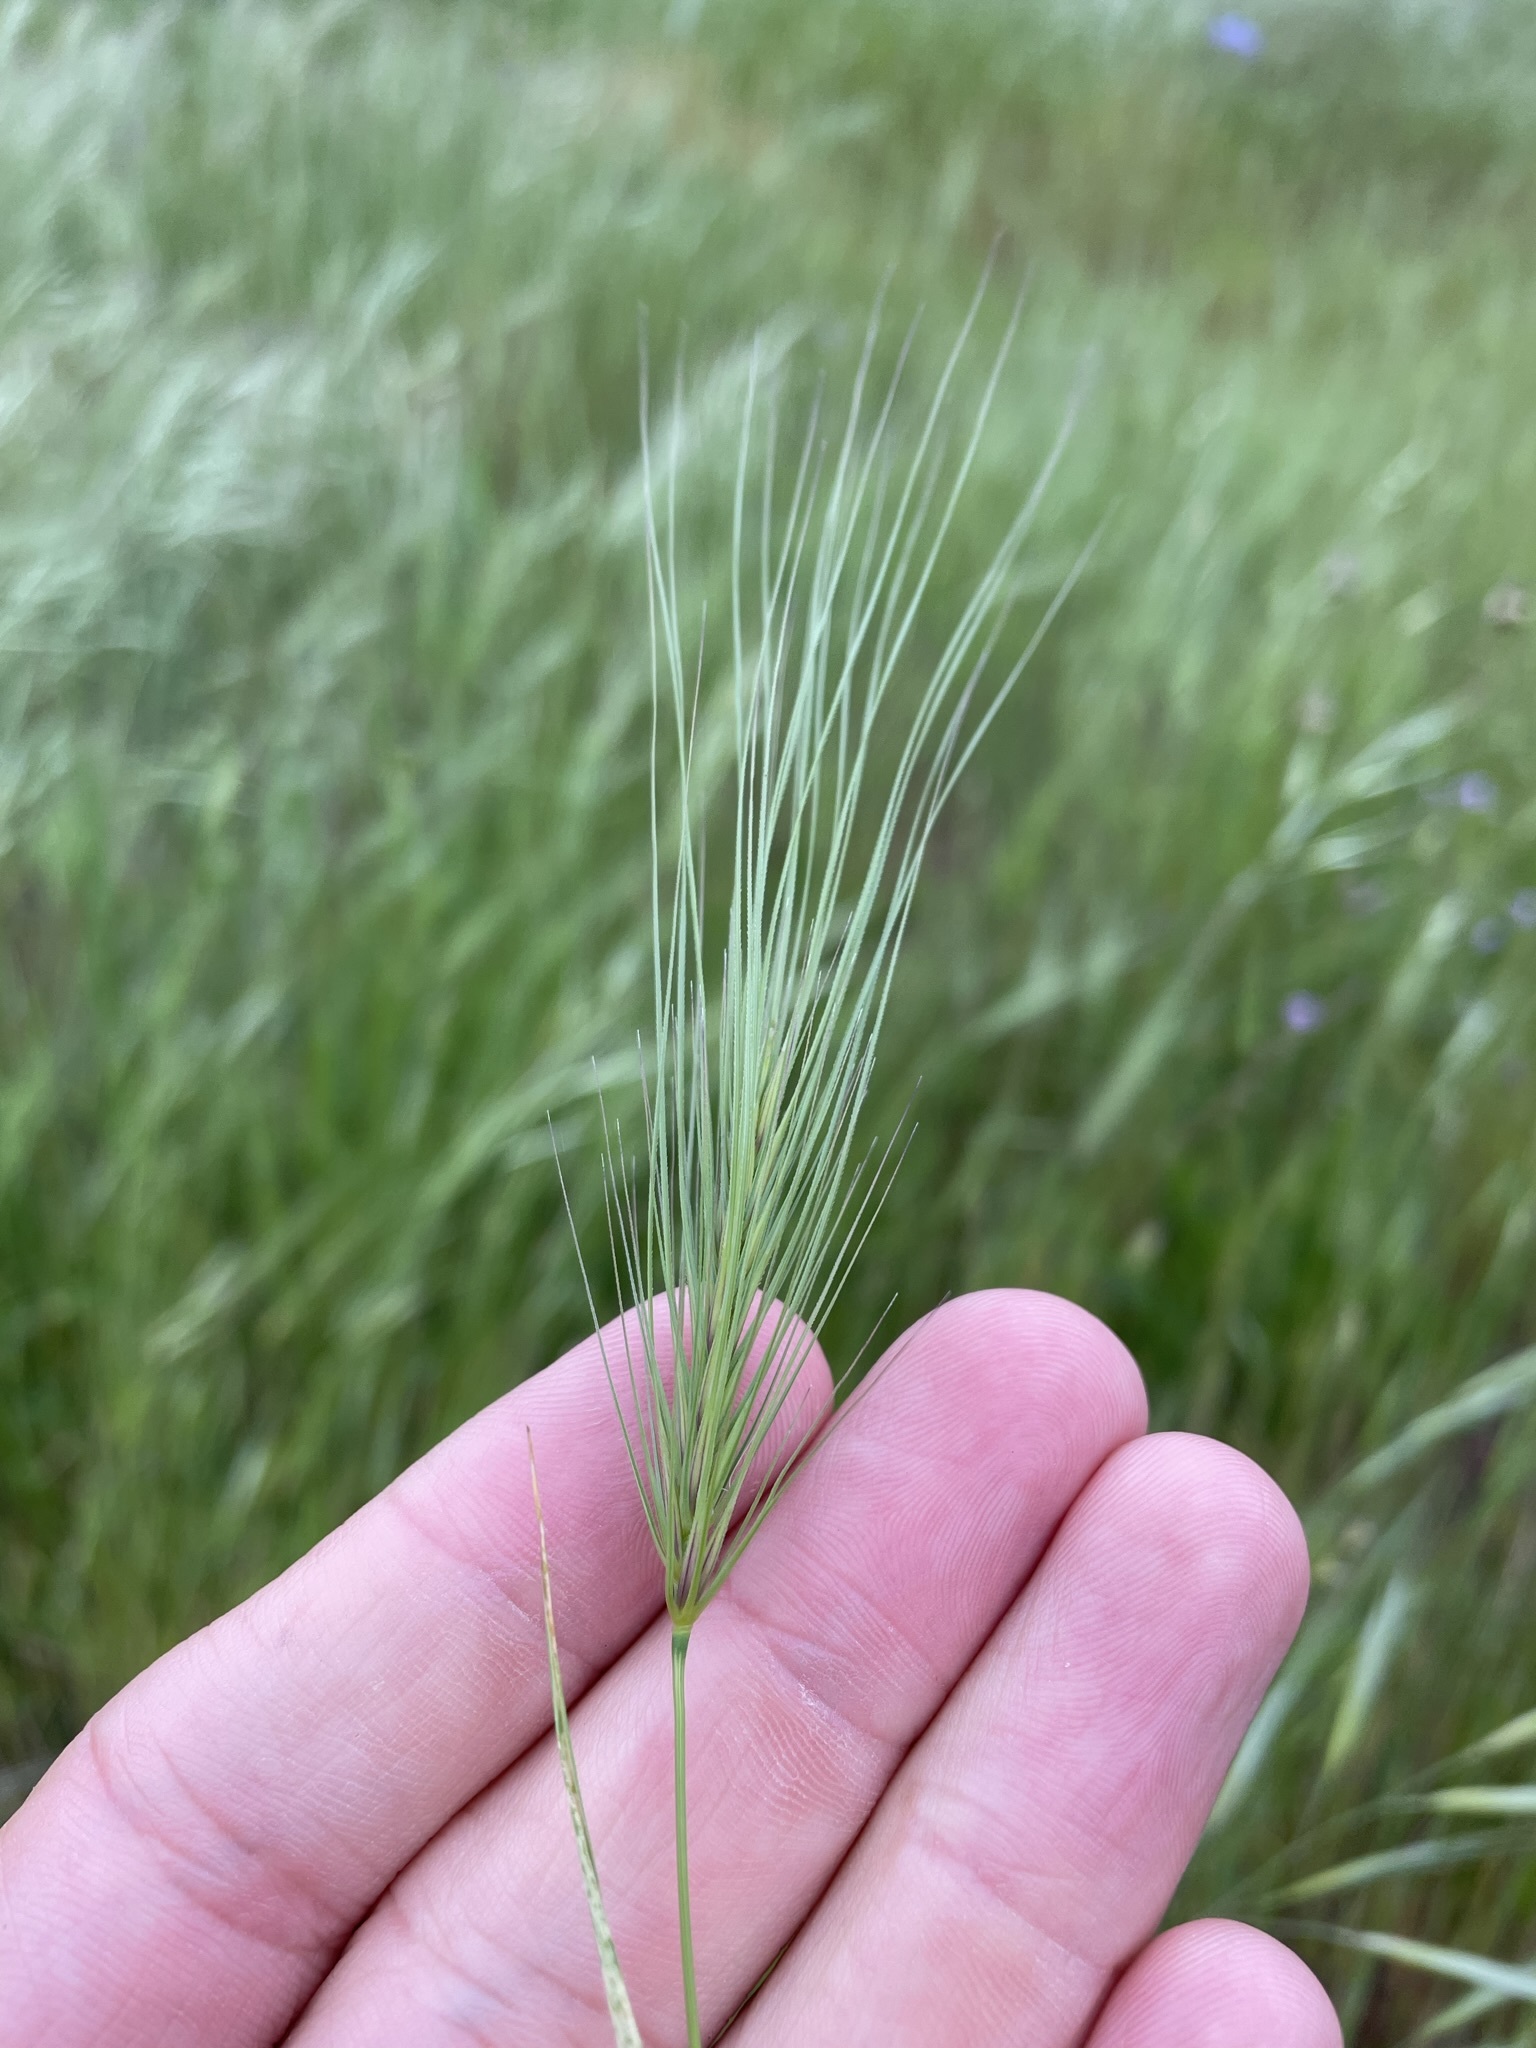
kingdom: Plantae
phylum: Tracheophyta
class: Liliopsida
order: Poales
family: Poaceae
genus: Taeniatherum
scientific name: Taeniatherum caput-medusae
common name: Medusahead
